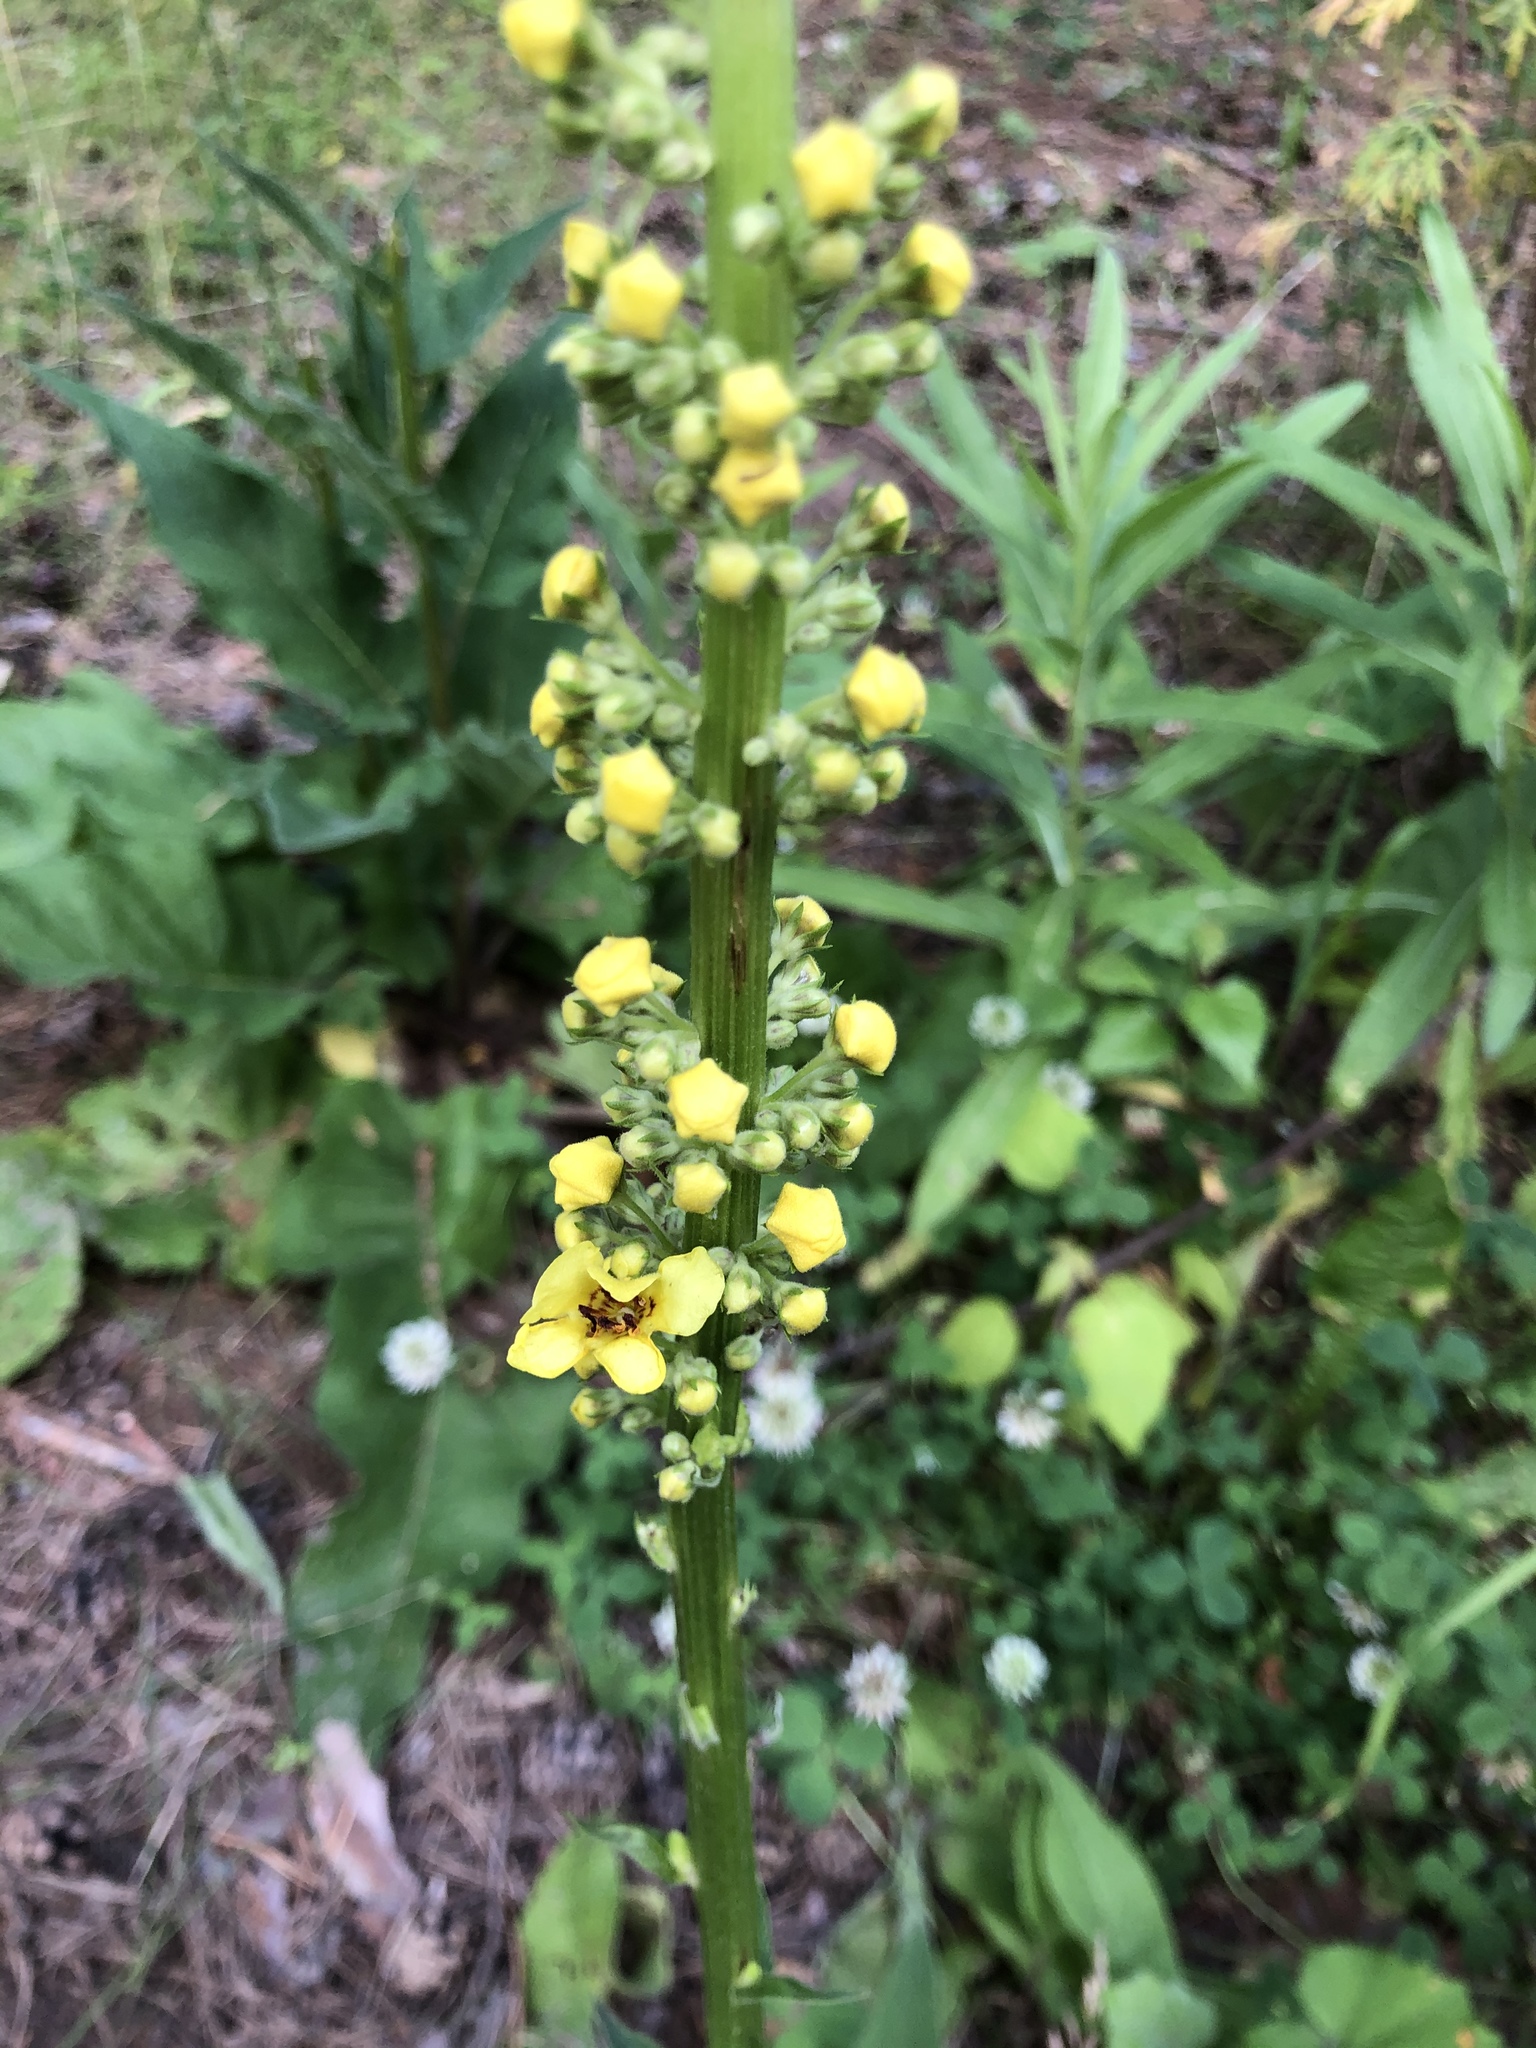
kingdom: Plantae
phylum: Tracheophyta
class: Magnoliopsida
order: Lamiales
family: Scrophulariaceae
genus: Verbascum
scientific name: Verbascum nigrum
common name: Dark mullein
